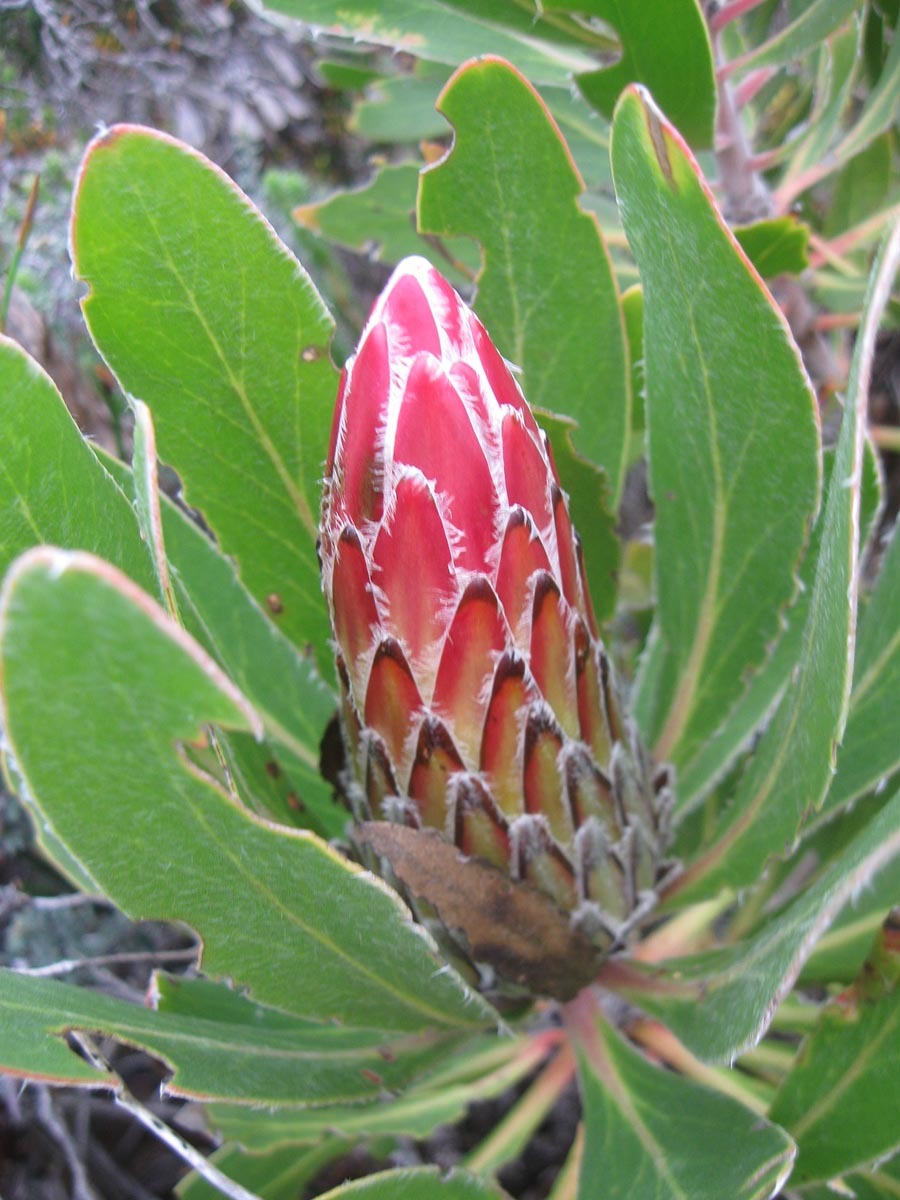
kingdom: Plantae
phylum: Tracheophyta
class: Magnoliopsida
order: Proteales
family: Proteaceae
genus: Protea
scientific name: Protea obtusifolia
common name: Bredasdorp sugarbush
